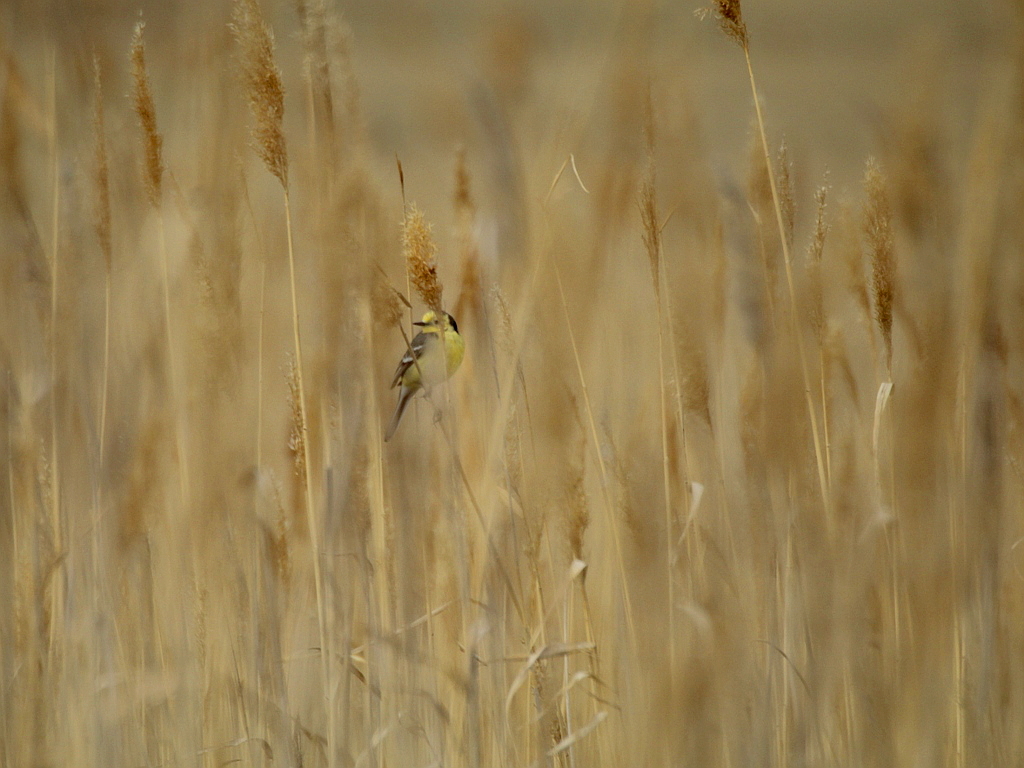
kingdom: Animalia
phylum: Chordata
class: Aves
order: Passeriformes
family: Motacillidae
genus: Motacilla
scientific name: Motacilla citreola
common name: Citrine wagtail
